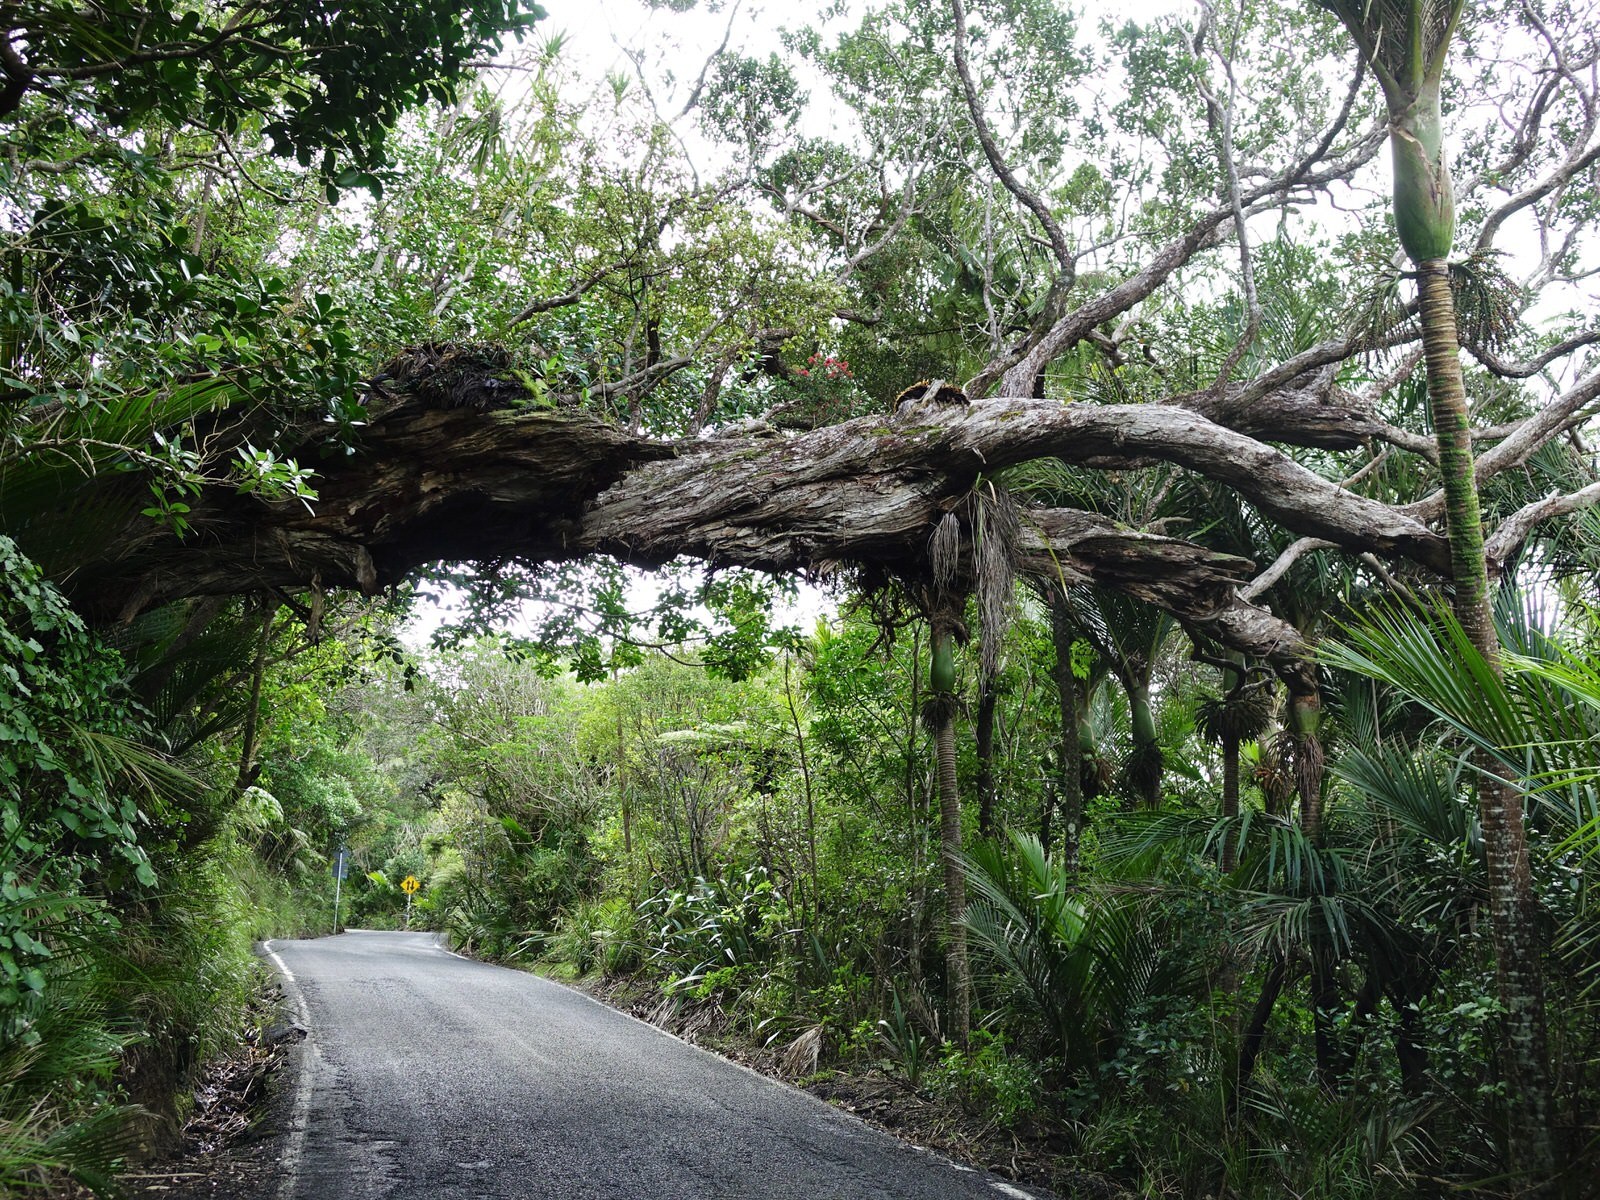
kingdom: Plantae
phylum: Tracheophyta
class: Magnoliopsida
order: Myrtales
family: Myrtaceae
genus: Metrosideros
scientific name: Metrosideros carminea
